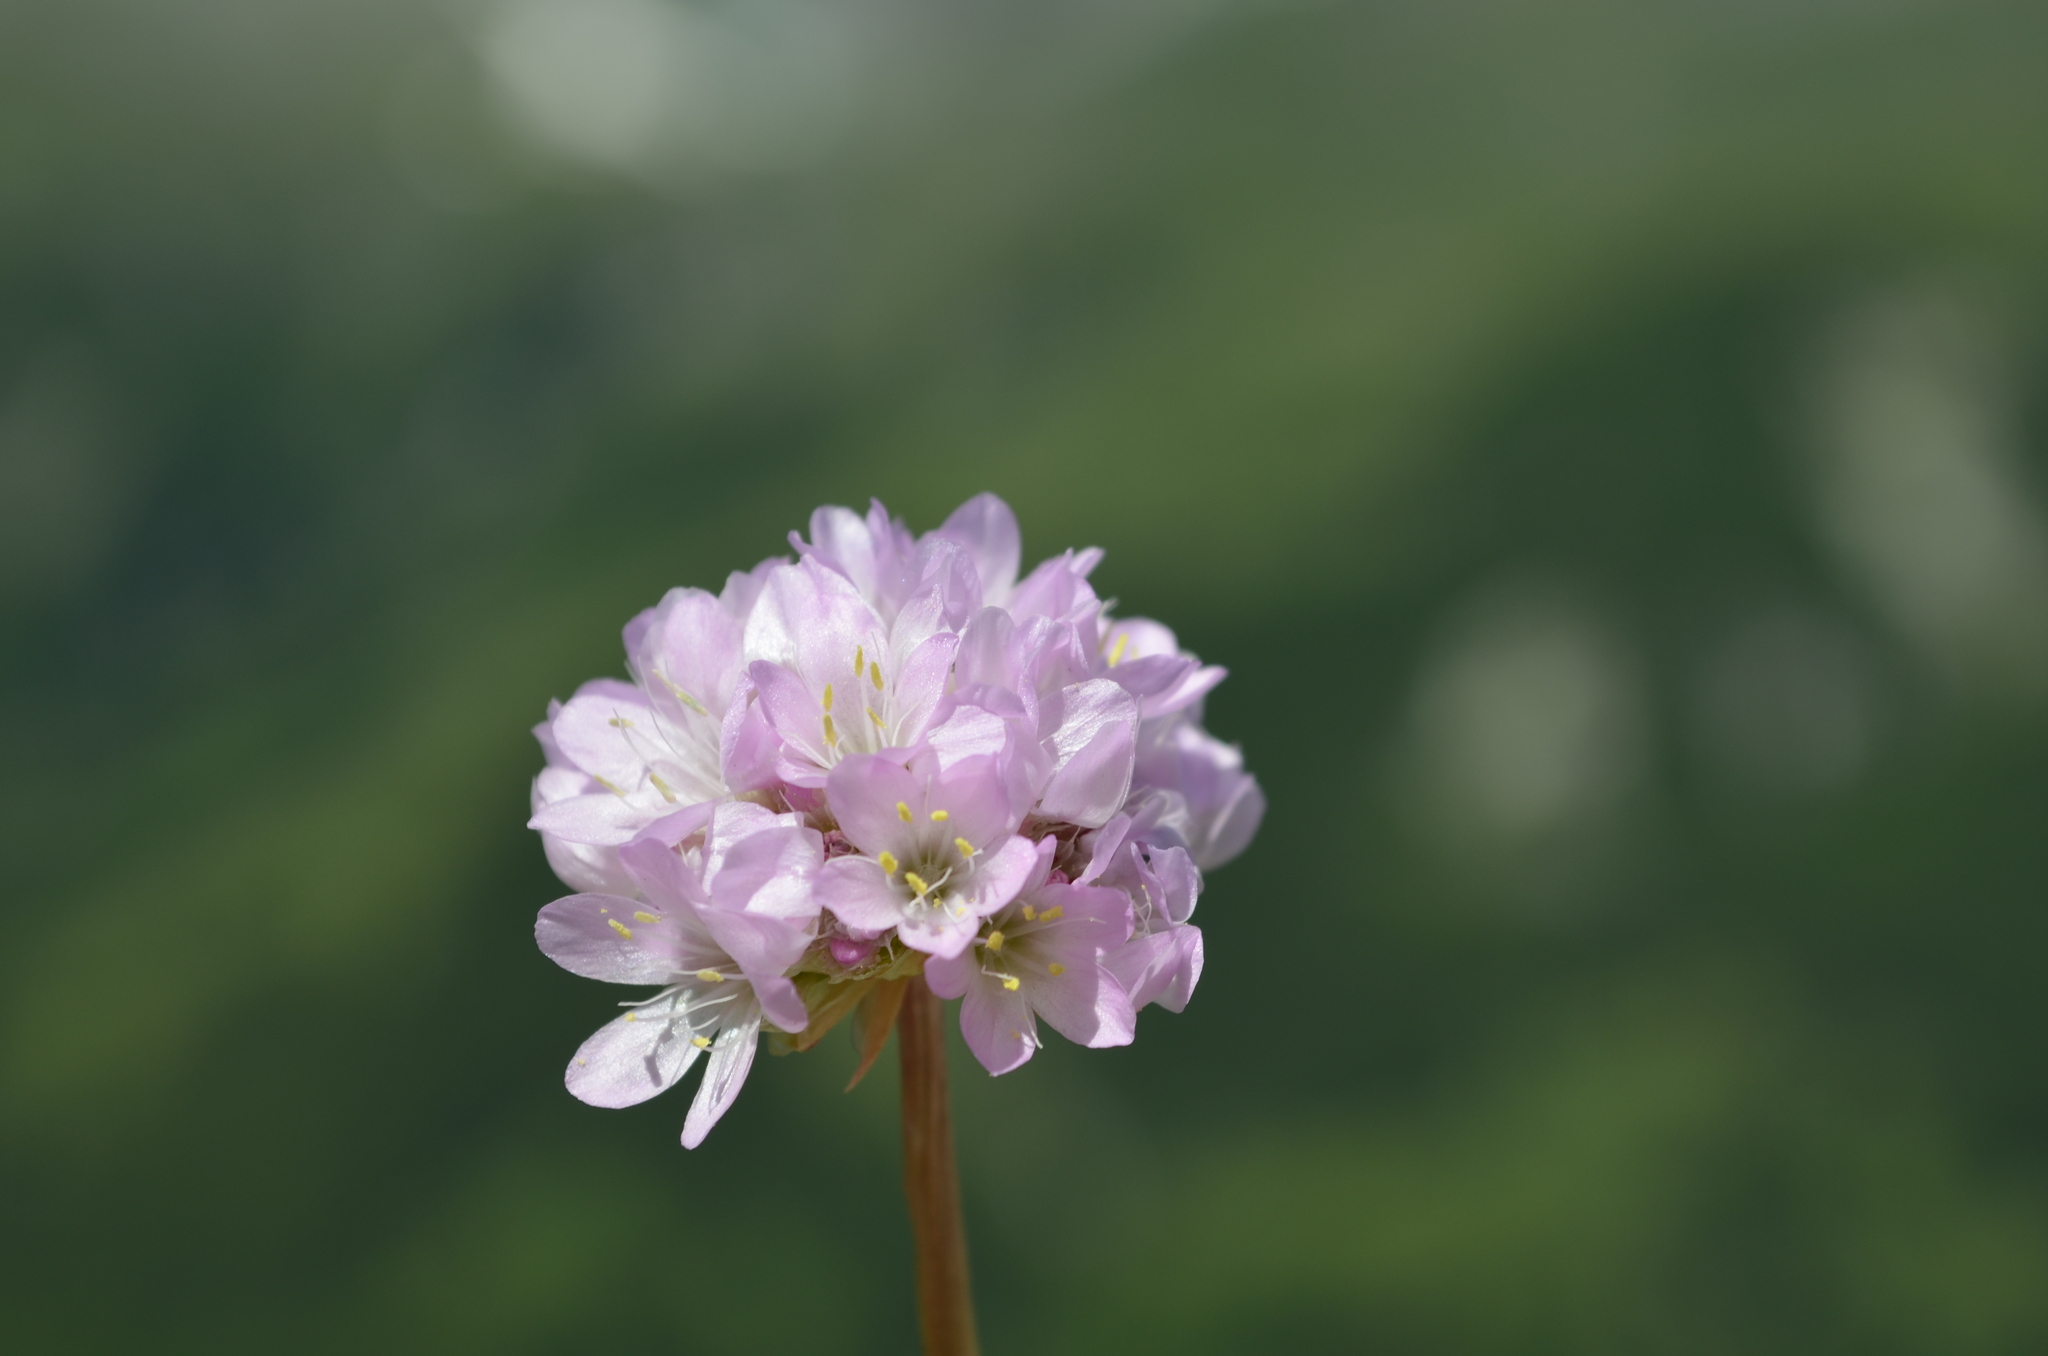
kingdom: Plantae
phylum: Tracheophyta
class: Magnoliopsida
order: Caryophyllales
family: Plumbaginaceae
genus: Armeria
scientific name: Armeria arenaria
